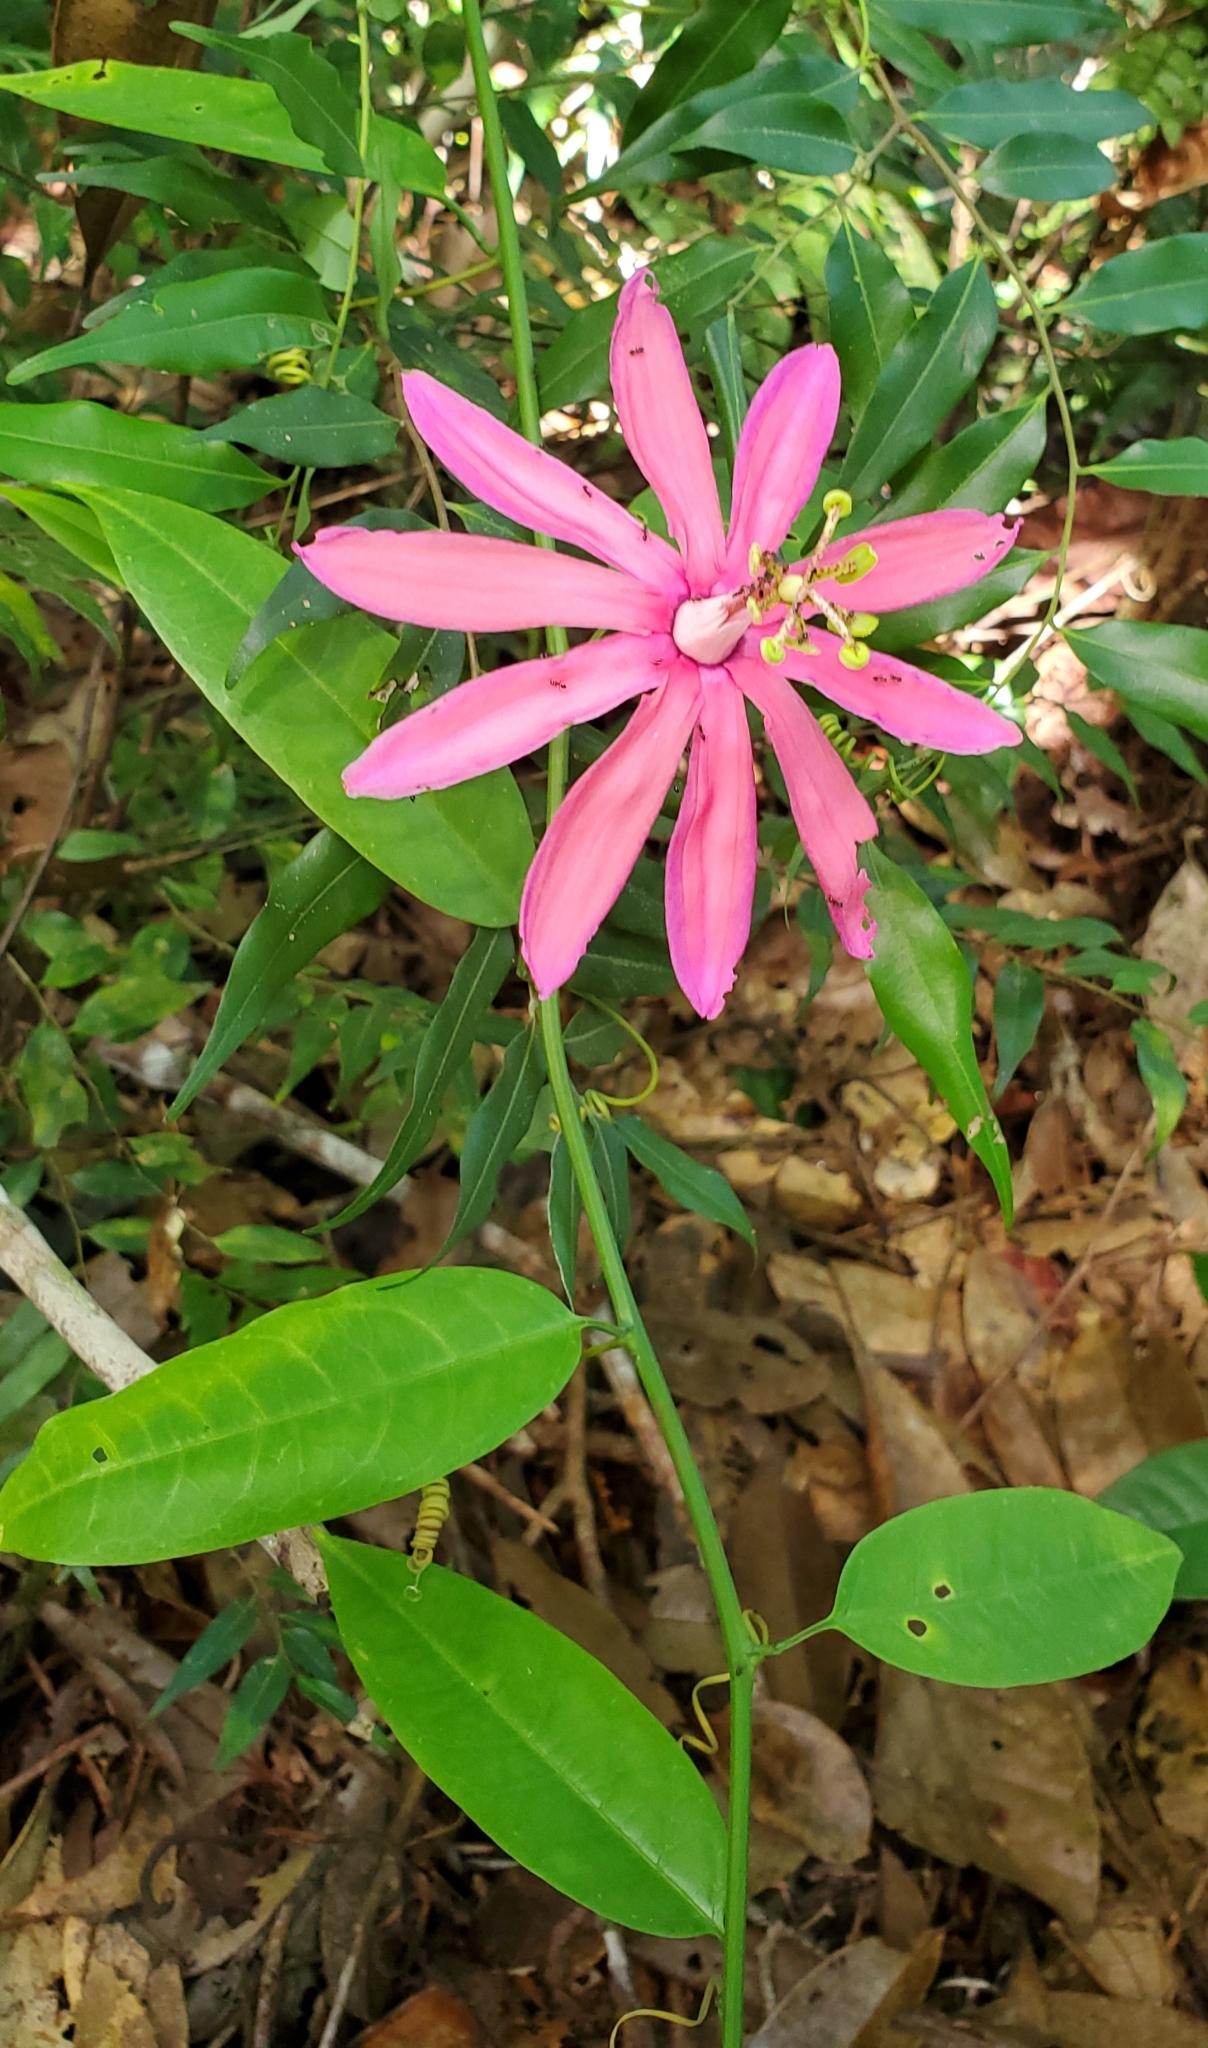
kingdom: Plantae
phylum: Tracheophyta
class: Magnoliopsida
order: Malpighiales
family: Passifloraceae
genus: Passiflora
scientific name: Passiflora glandulosa
